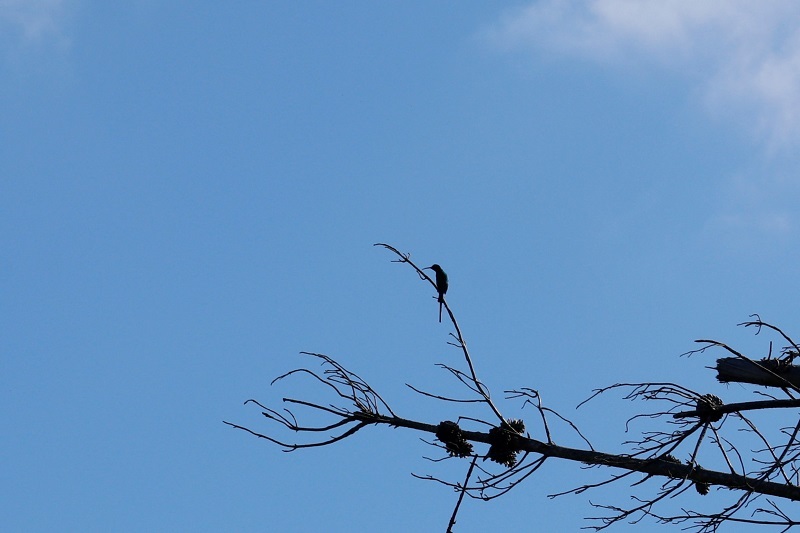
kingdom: Animalia
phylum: Chordata
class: Aves
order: Passeriformes
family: Nectariniidae
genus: Nectarinia
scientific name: Nectarinia famosa
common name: Malachite sunbird
